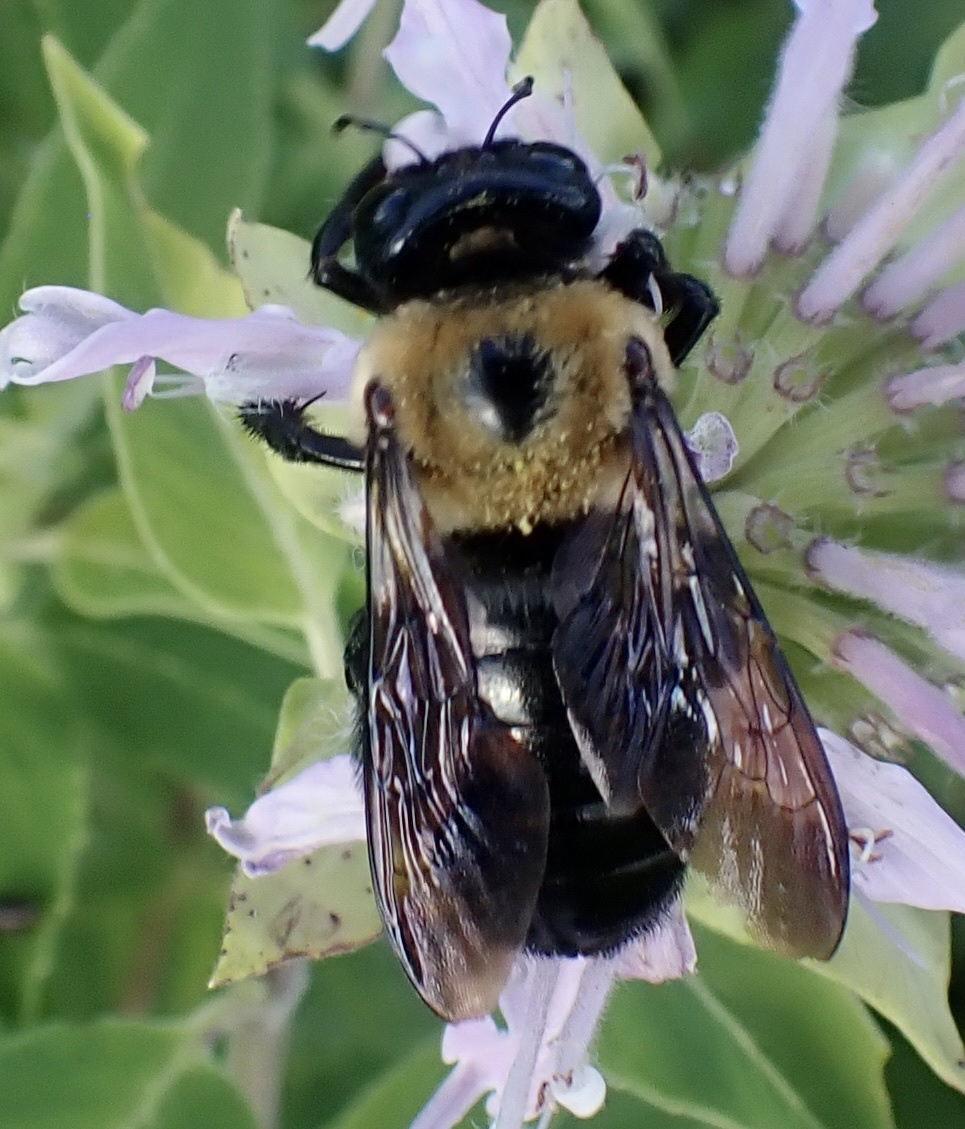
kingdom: Animalia
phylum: Arthropoda
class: Insecta
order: Hymenoptera
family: Apidae
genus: Xylocopa
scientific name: Xylocopa virginica
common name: Carpenter bee
